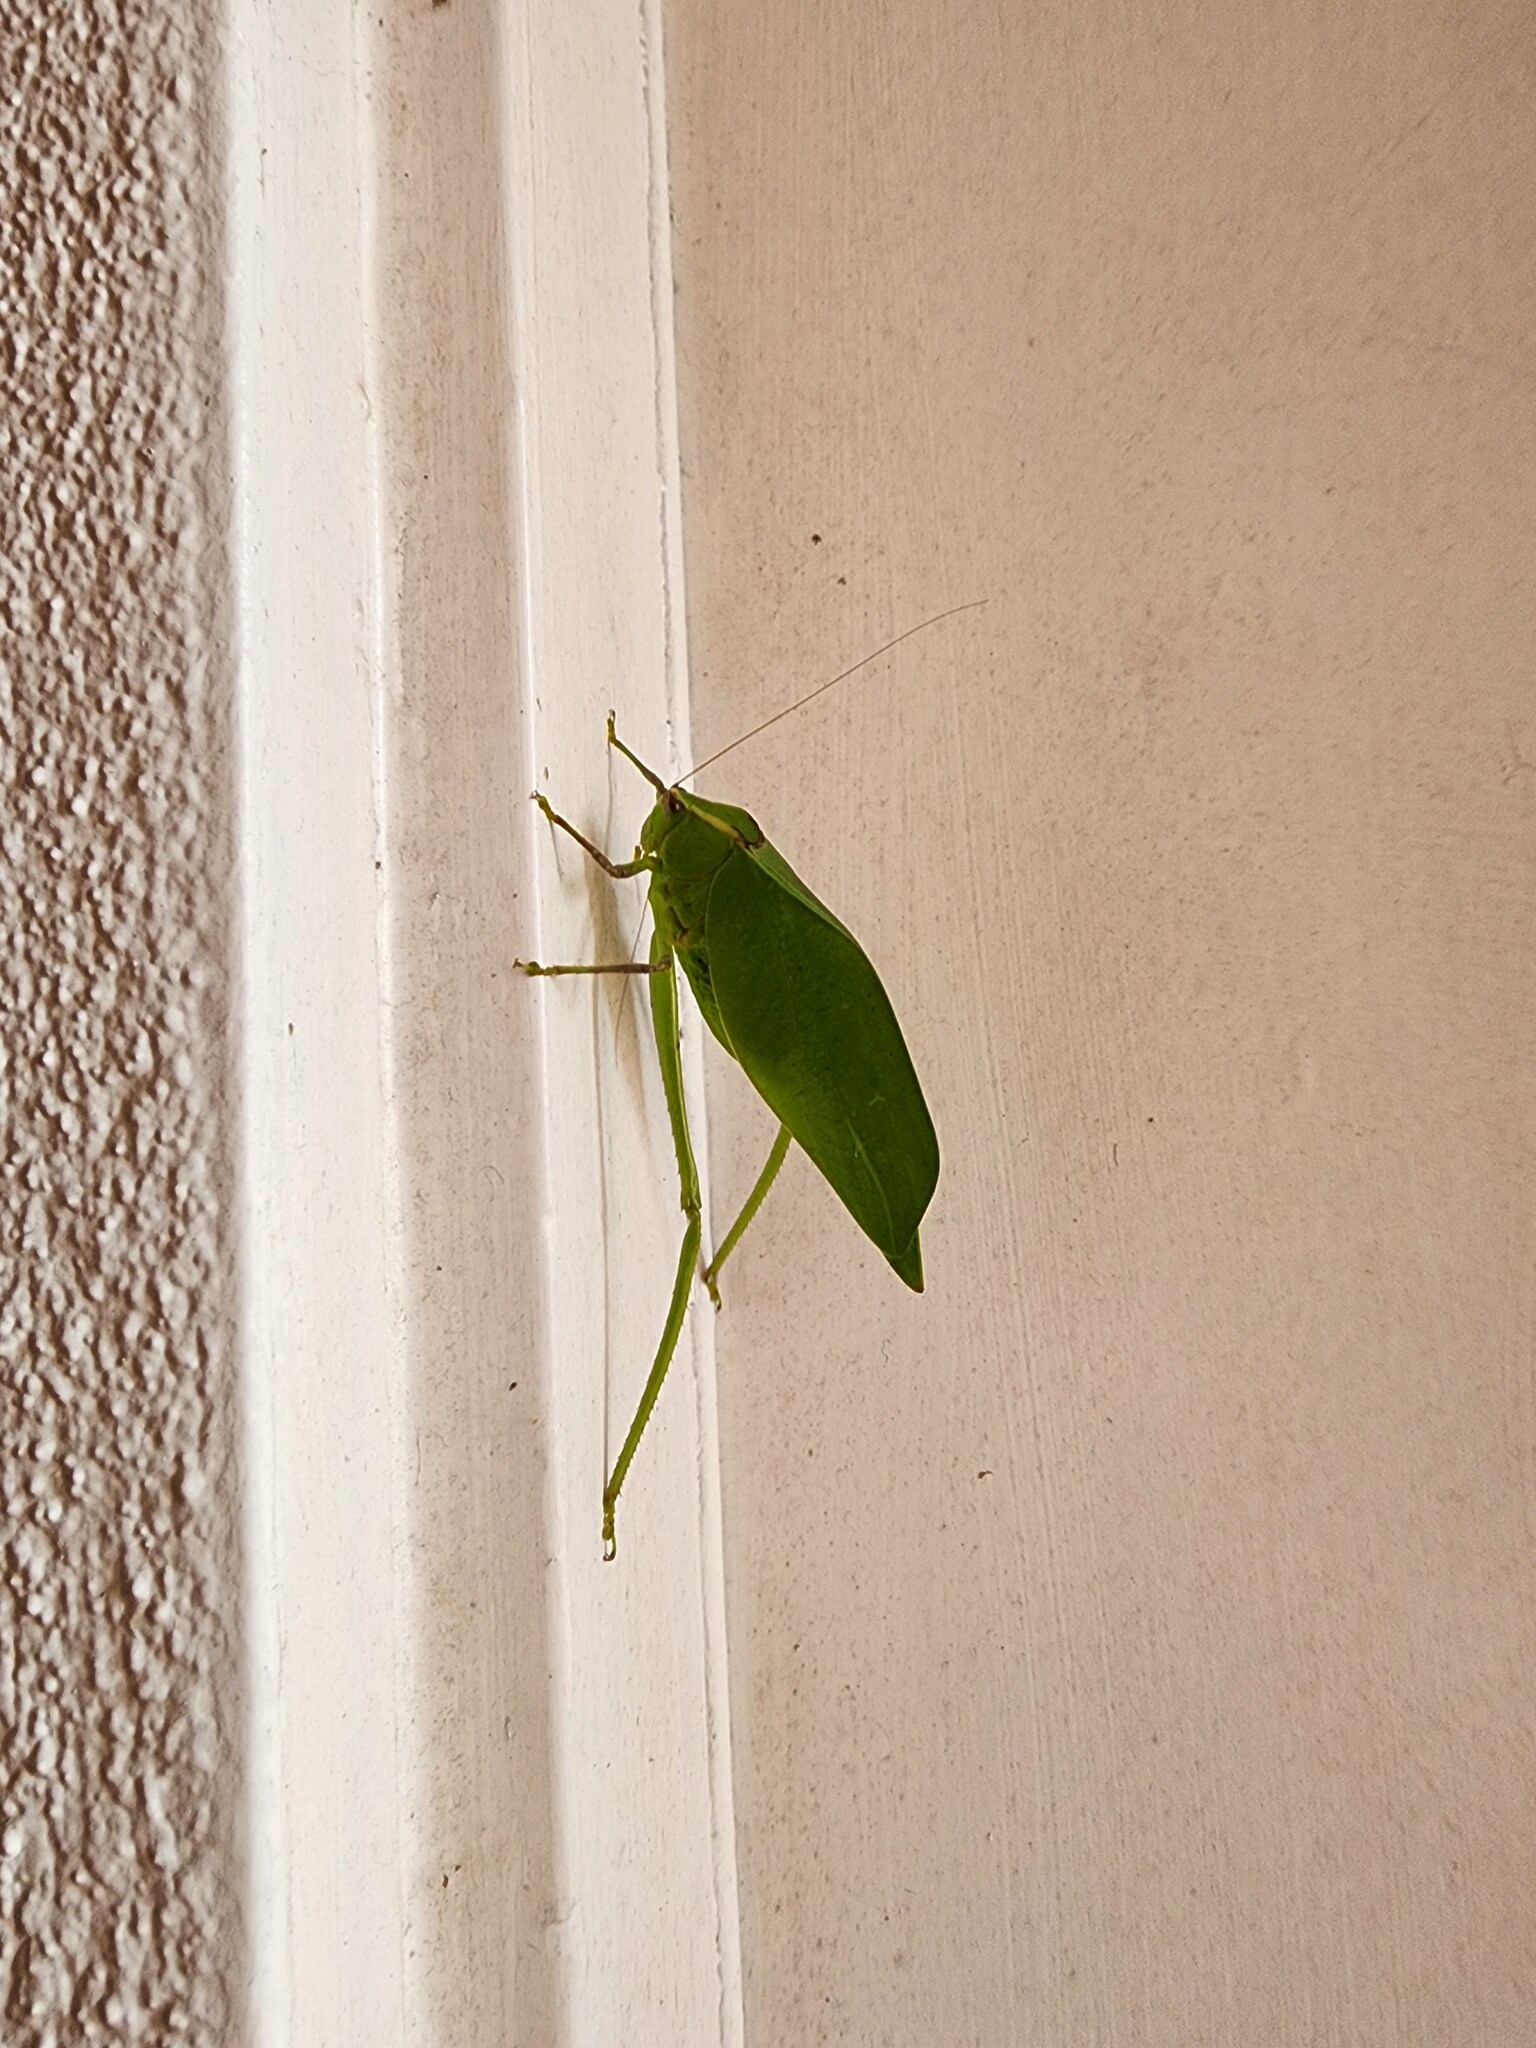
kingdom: Animalia
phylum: Arthropoda
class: Insecta
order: Orthoptera
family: Tettigoniidae
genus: Stilpnochlora
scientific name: Stilpnochlora couloniana
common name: Giant katydid
